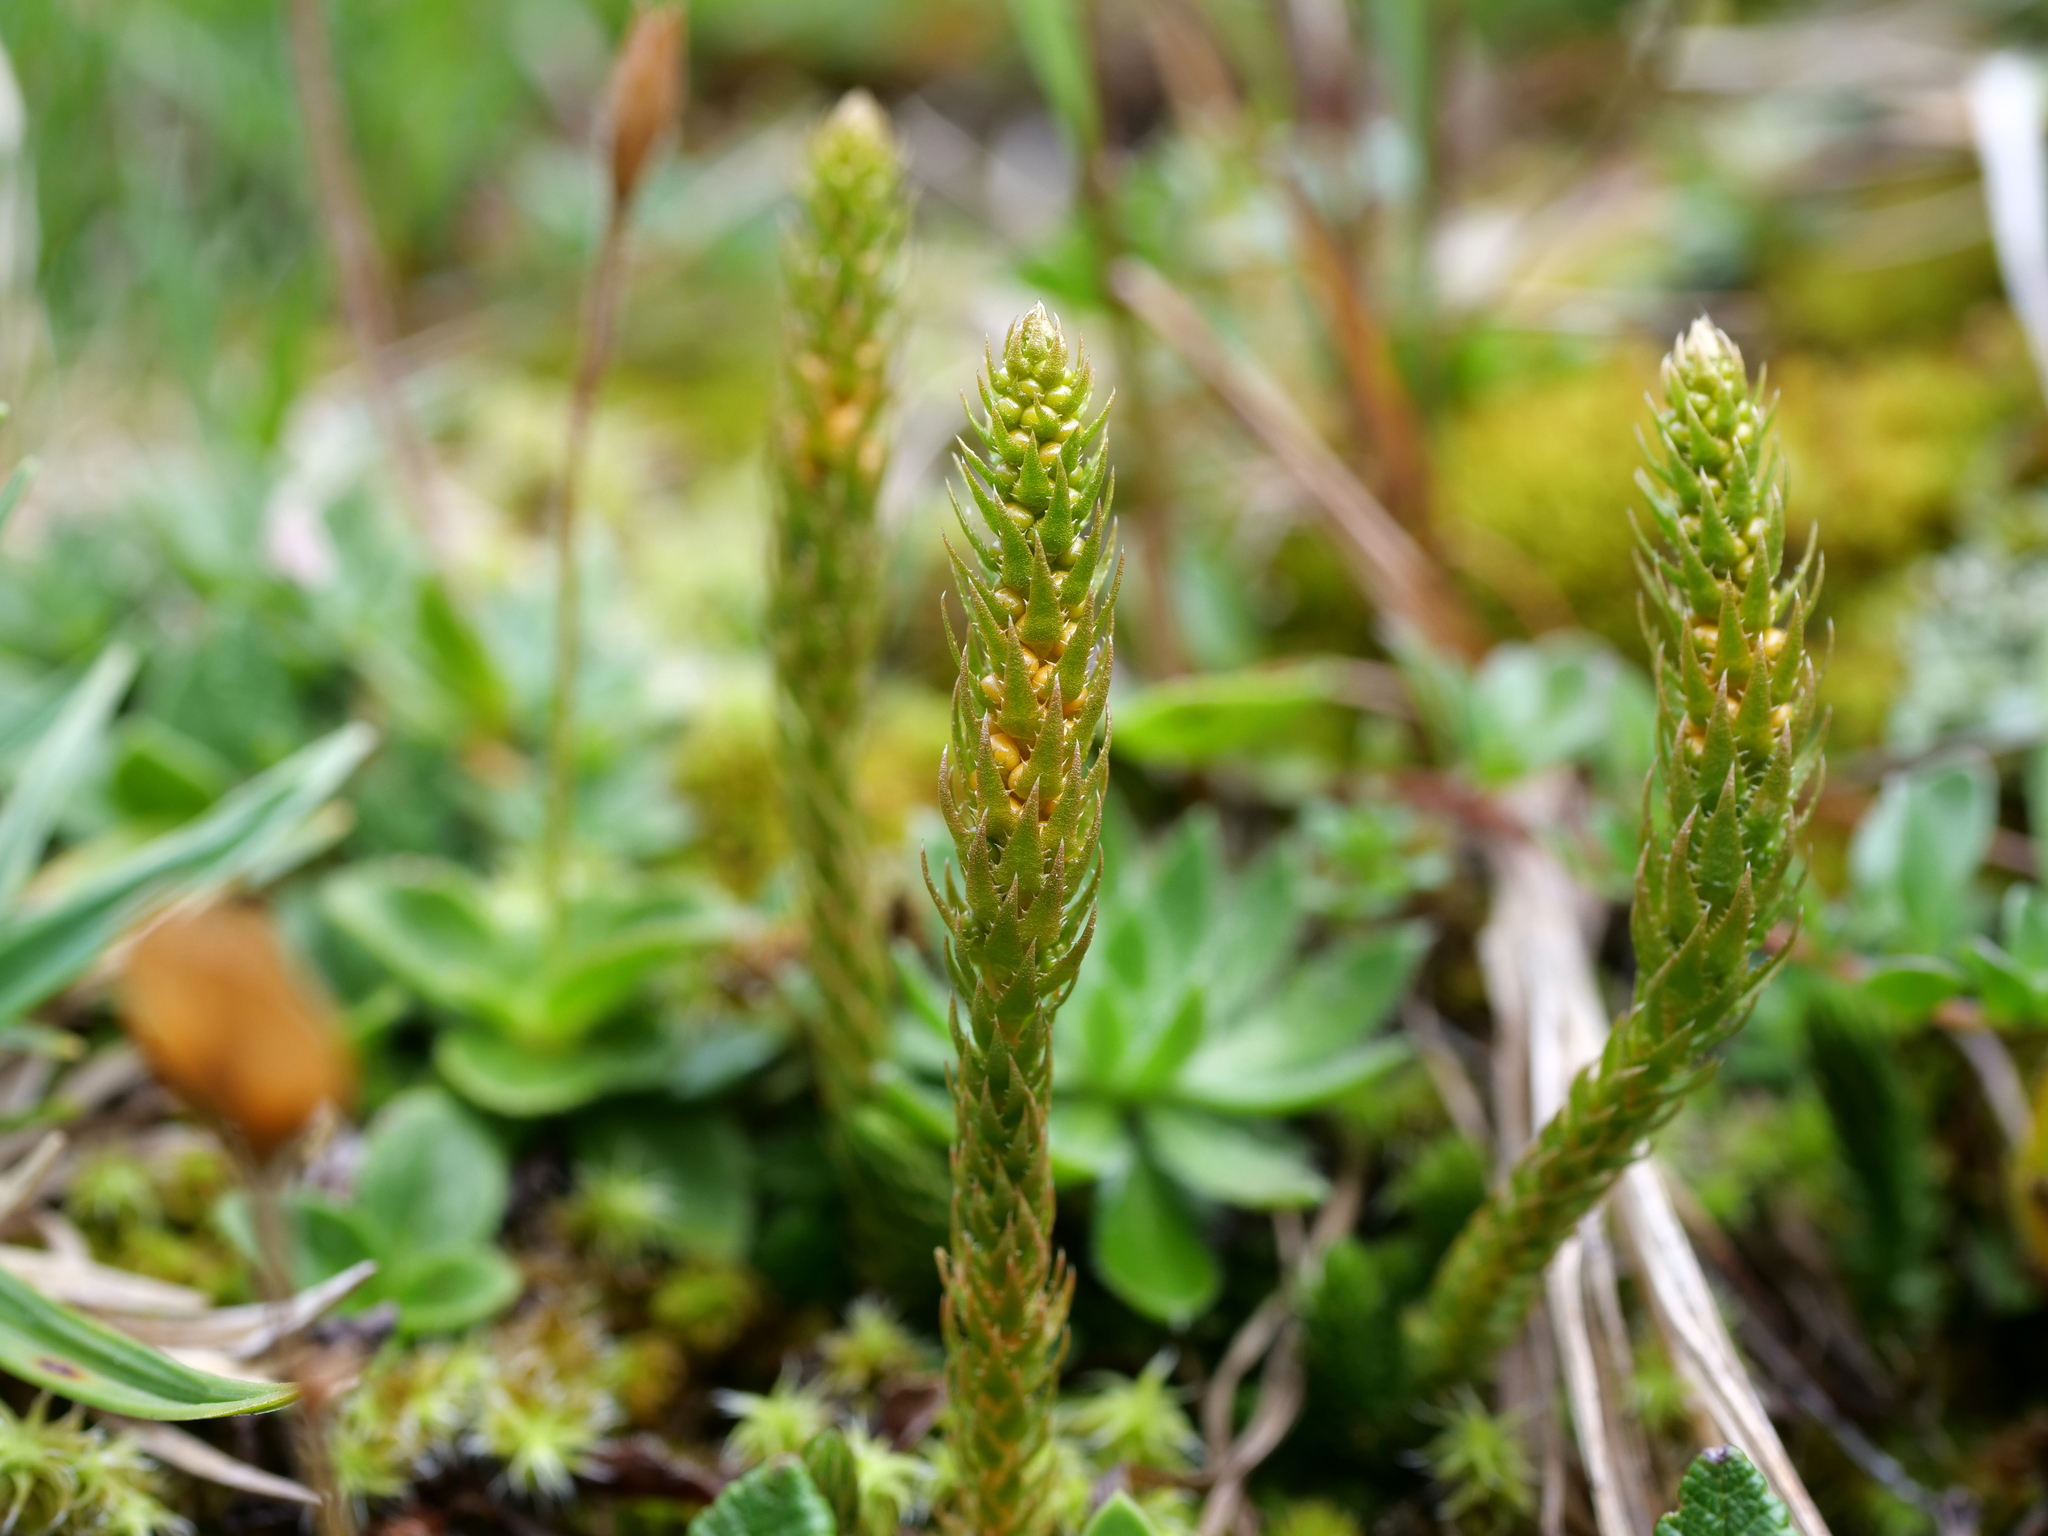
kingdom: Plantae
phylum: Tracheophyta
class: Lycopodiopsida
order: Selaginellales
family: Selaginellaceae
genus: Selaginella
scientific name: Selaginella selaginoides
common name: Prickly mountain-moss
